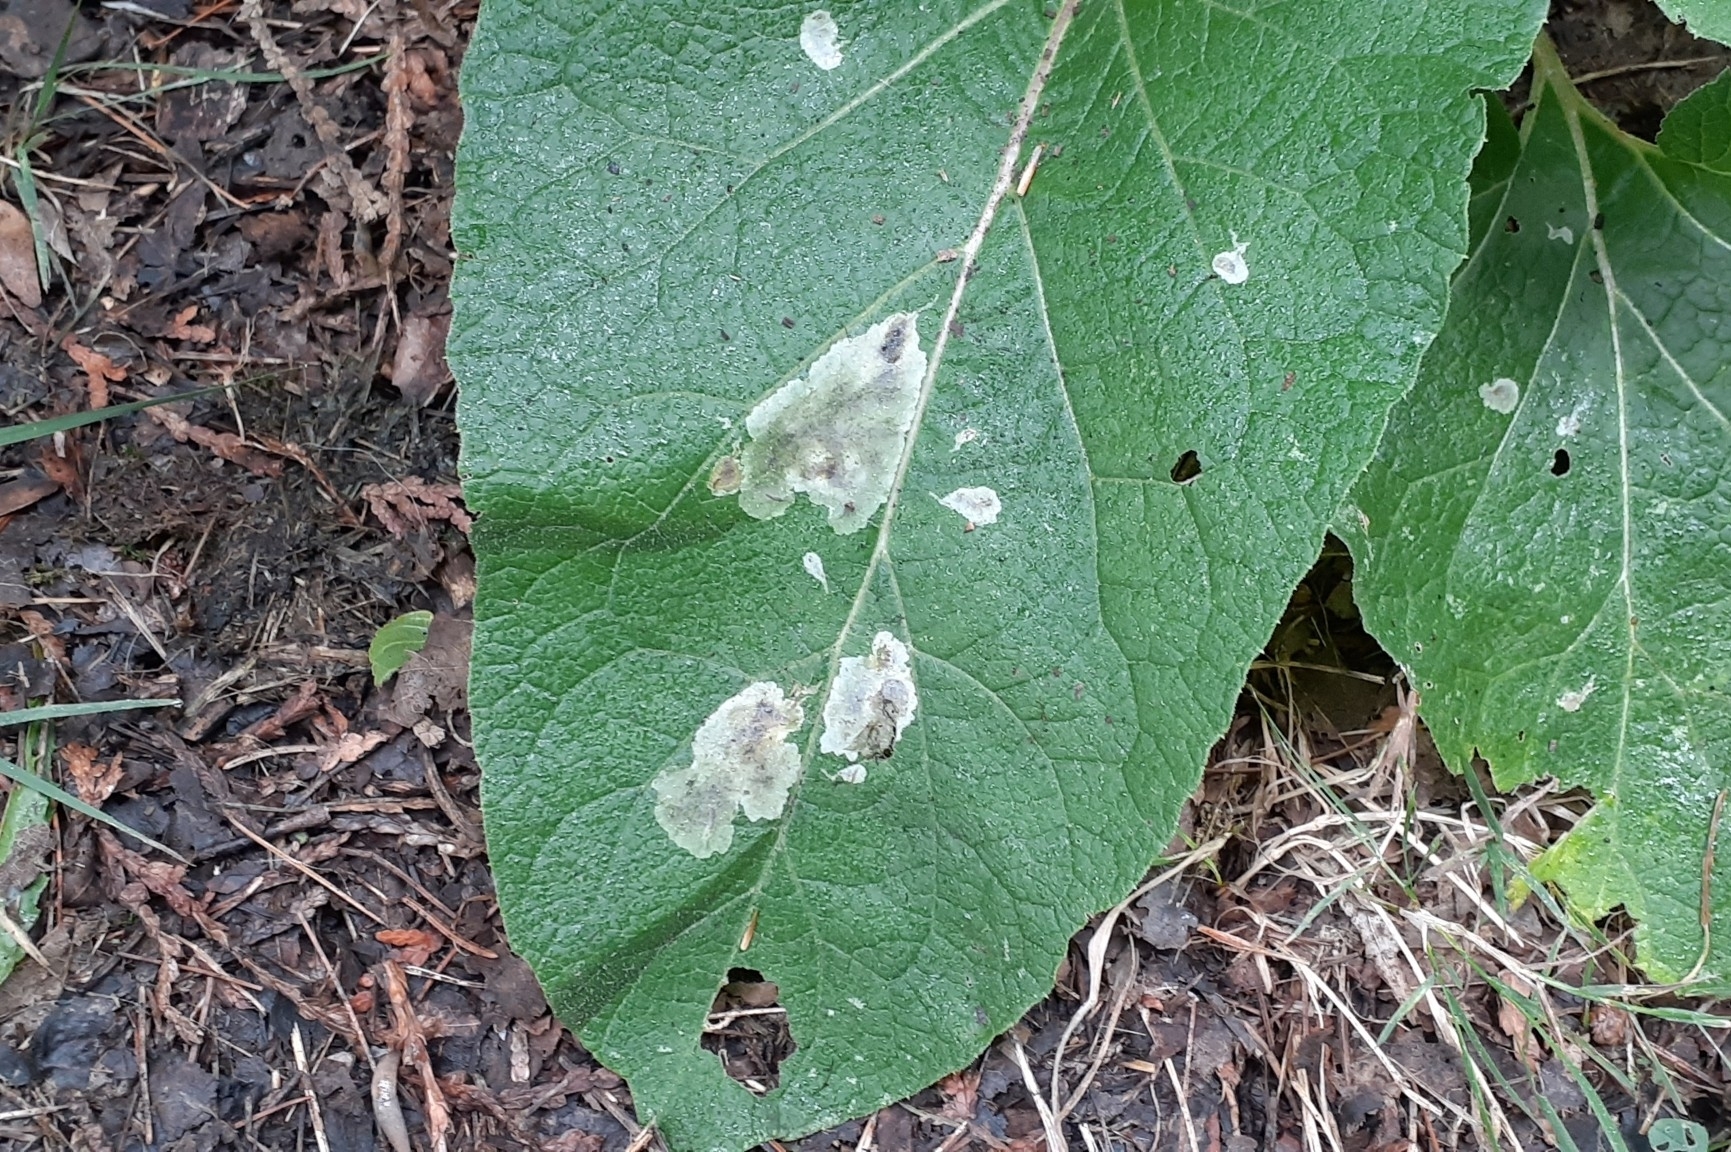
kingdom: Animalia
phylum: Arthropoda
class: Insecta
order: Diptera
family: Agromyzidae
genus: Calycomyza
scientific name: Calycomyza flavinotum
